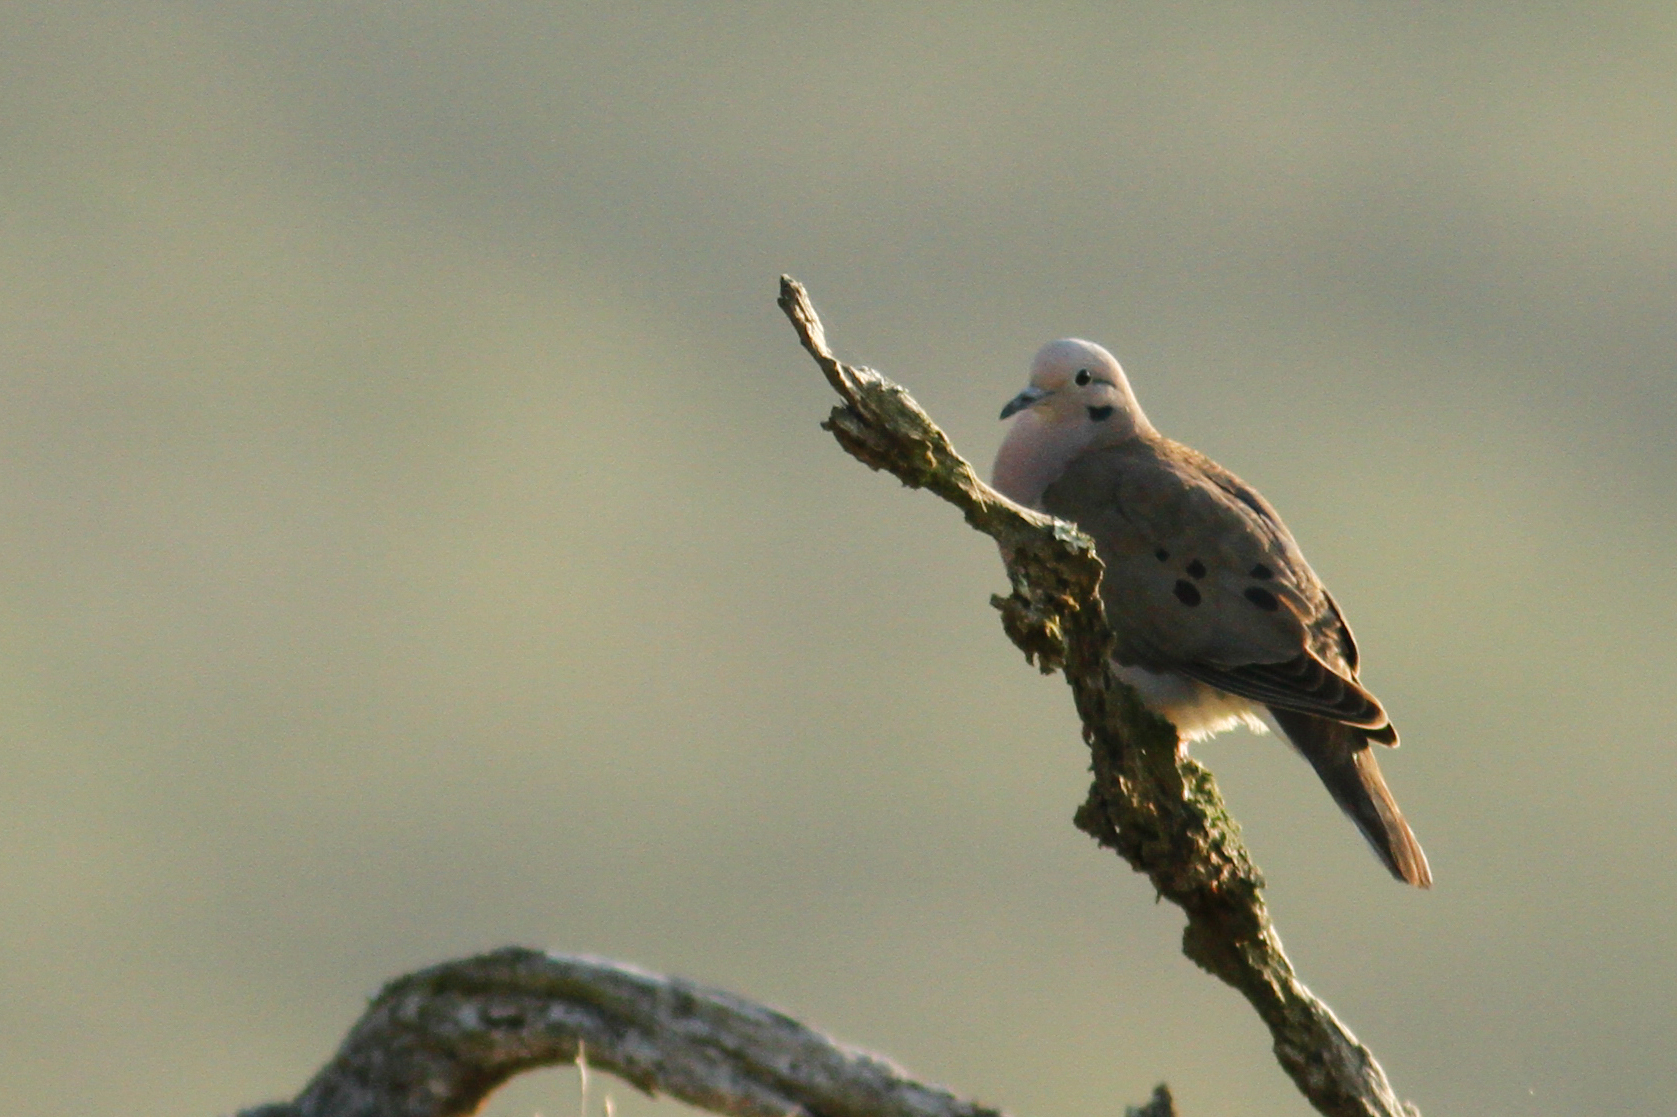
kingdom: Animalia
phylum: Chordata
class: Aves
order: Columbiformes
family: Columbidae
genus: Zenaida
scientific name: Zenaida auriculata
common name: Eared dove
